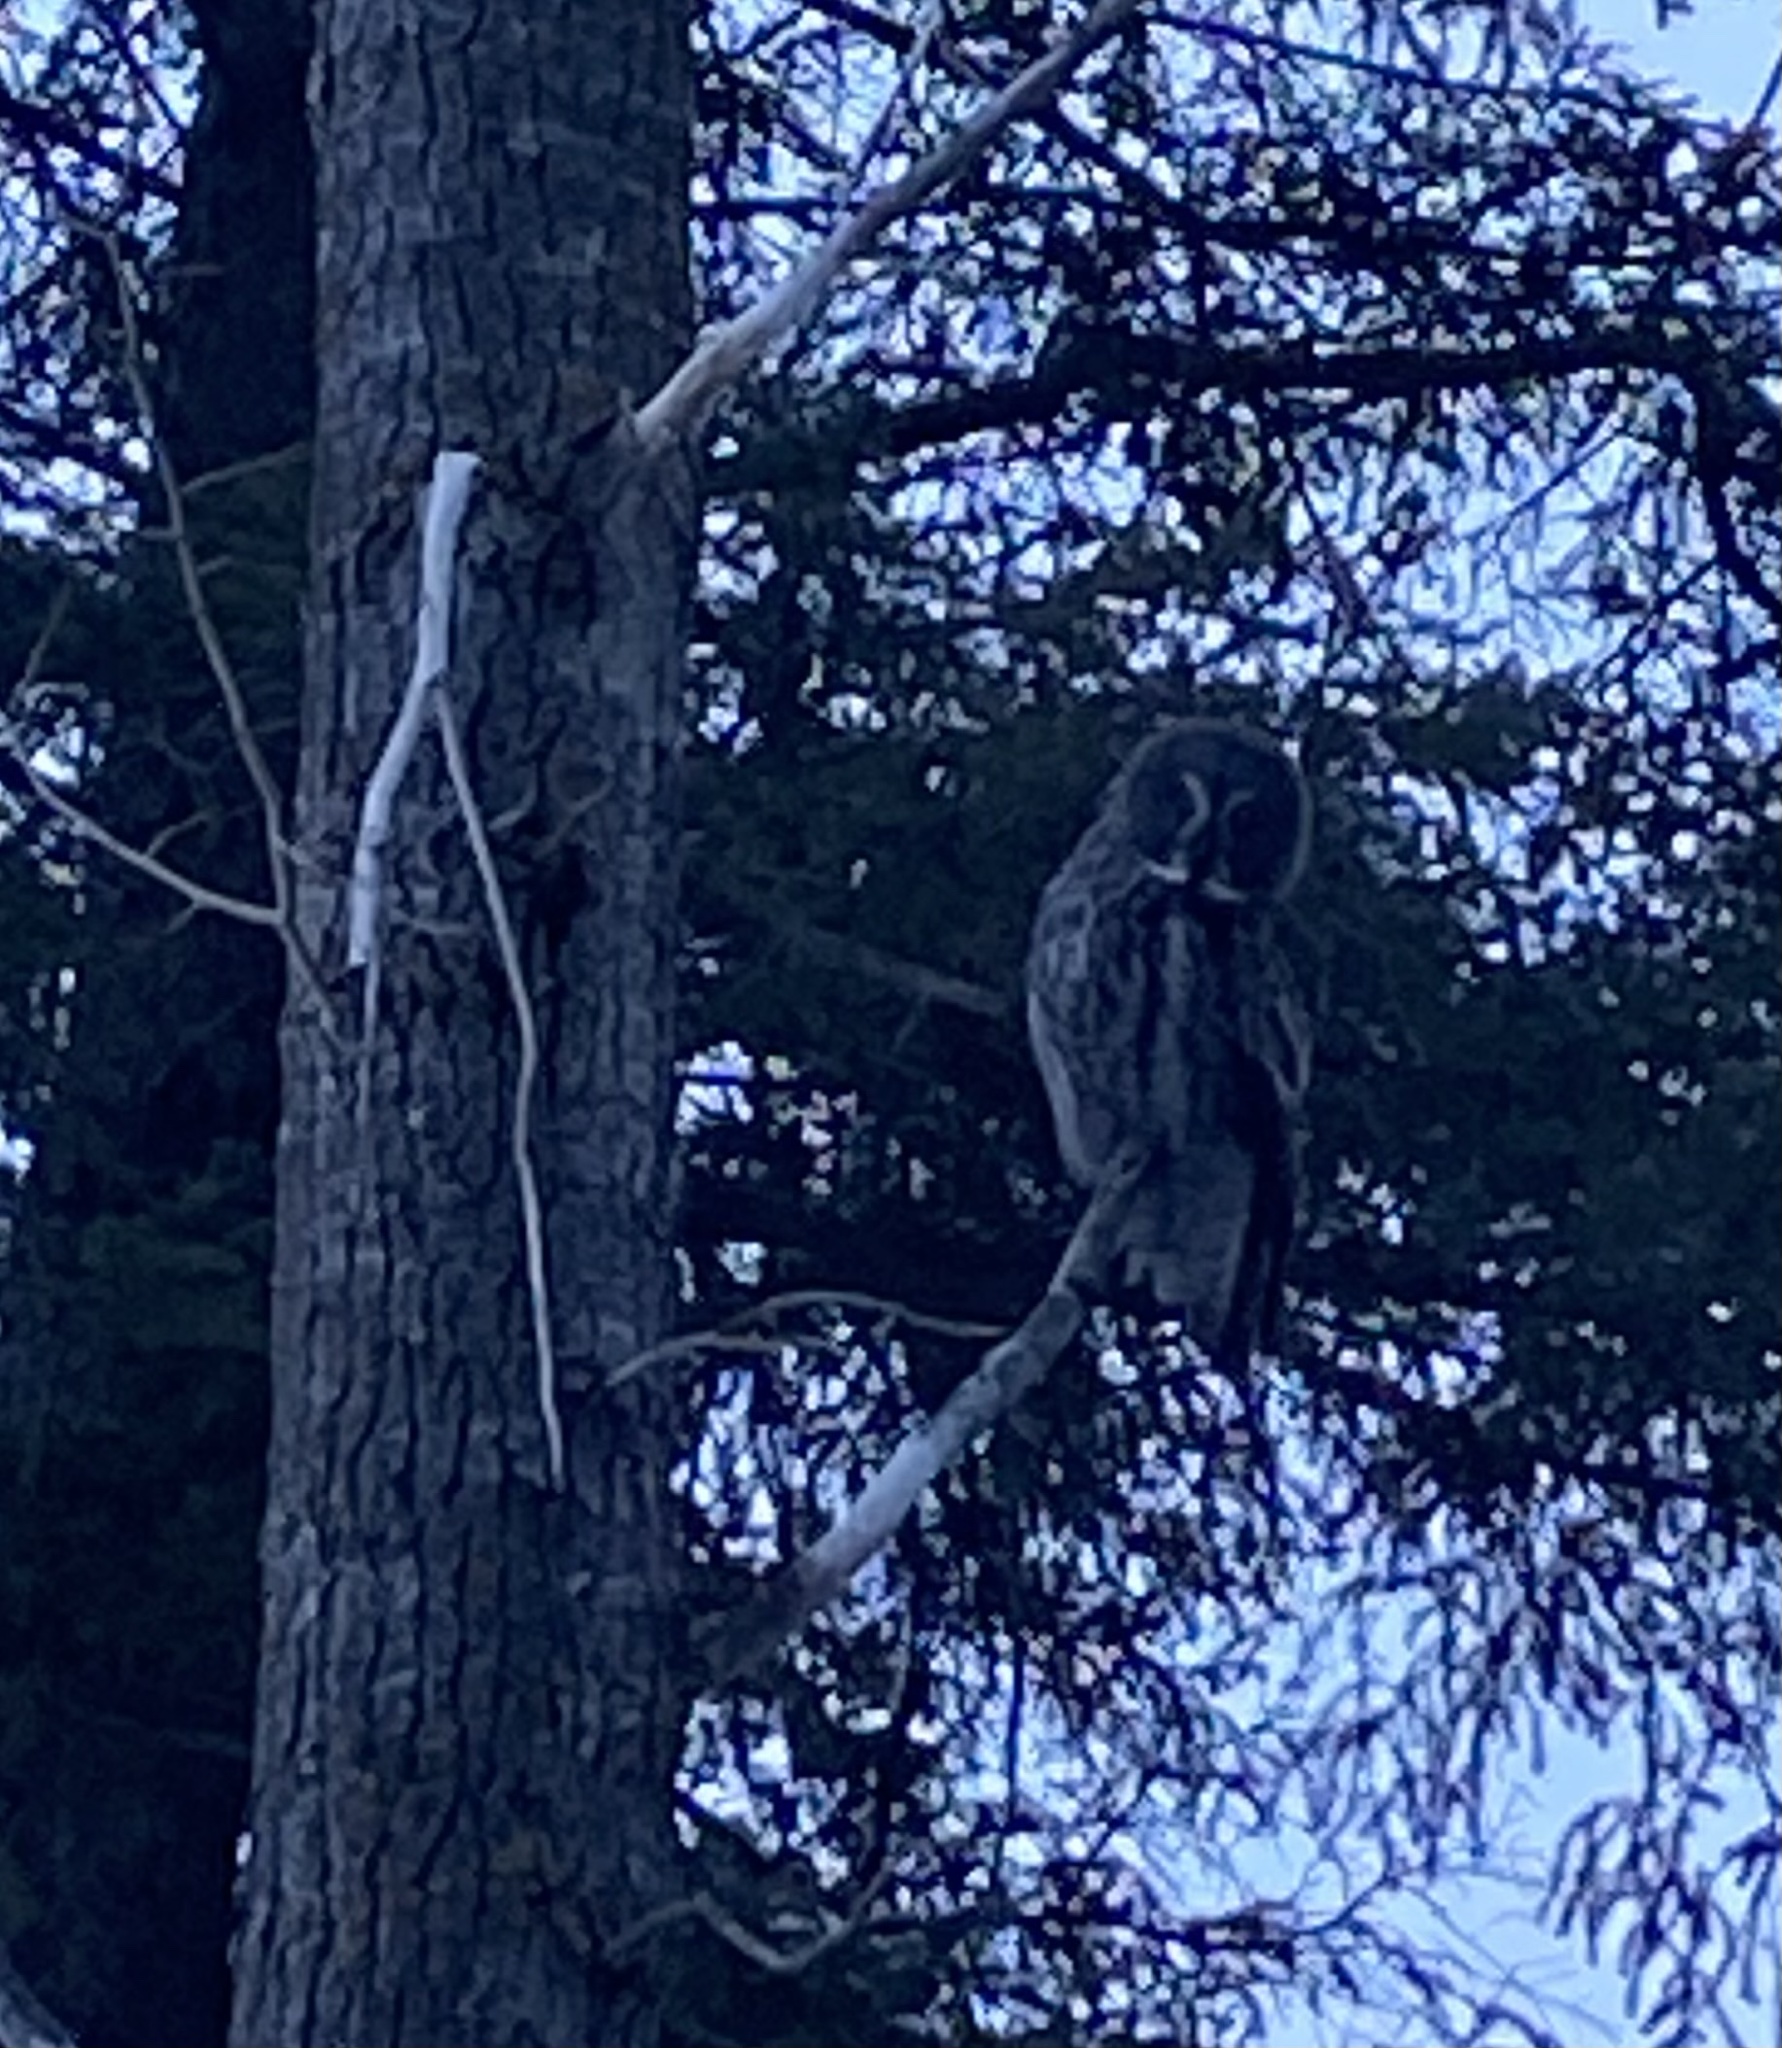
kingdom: Animalia
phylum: Chordata
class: Aves
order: Strigiformes
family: Strigidae
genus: Strix
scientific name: Strix nebulosa
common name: Great grey owl
